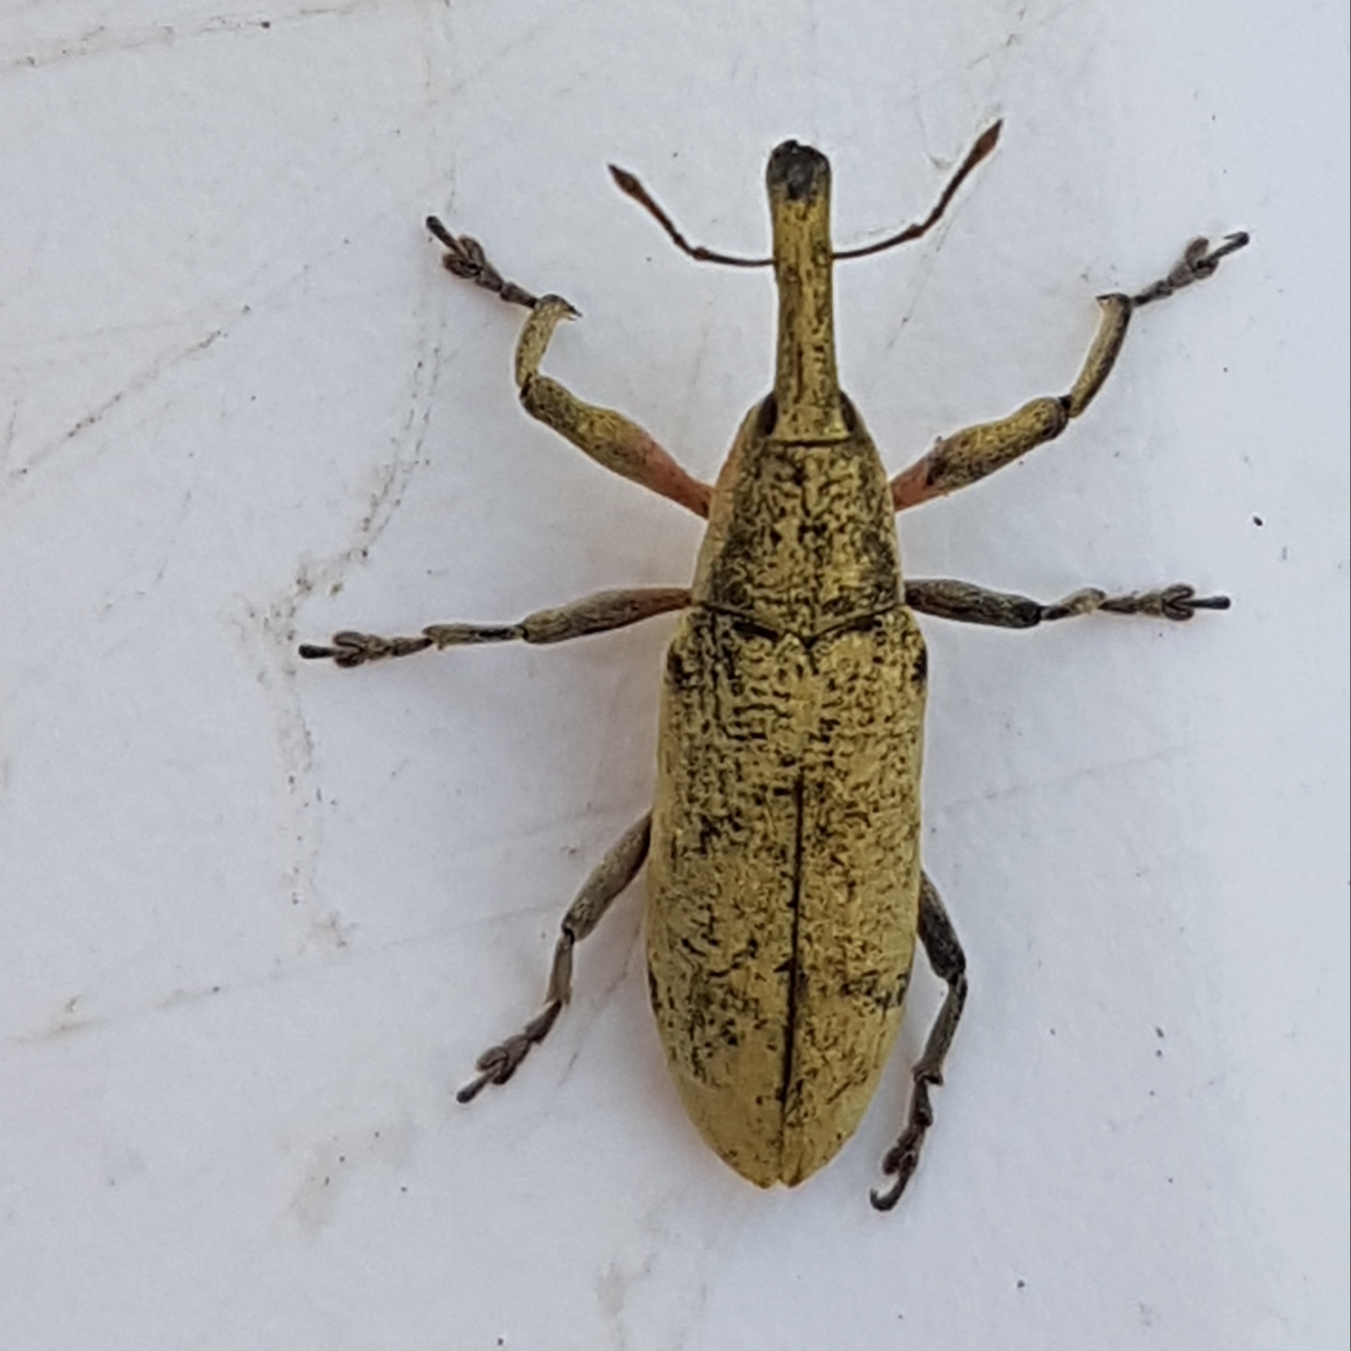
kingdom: Animalia
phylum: Arthropoda
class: Insecta
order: Coleoptera
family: Curculionidae
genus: Lixus
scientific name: Lixus pulverulentus
